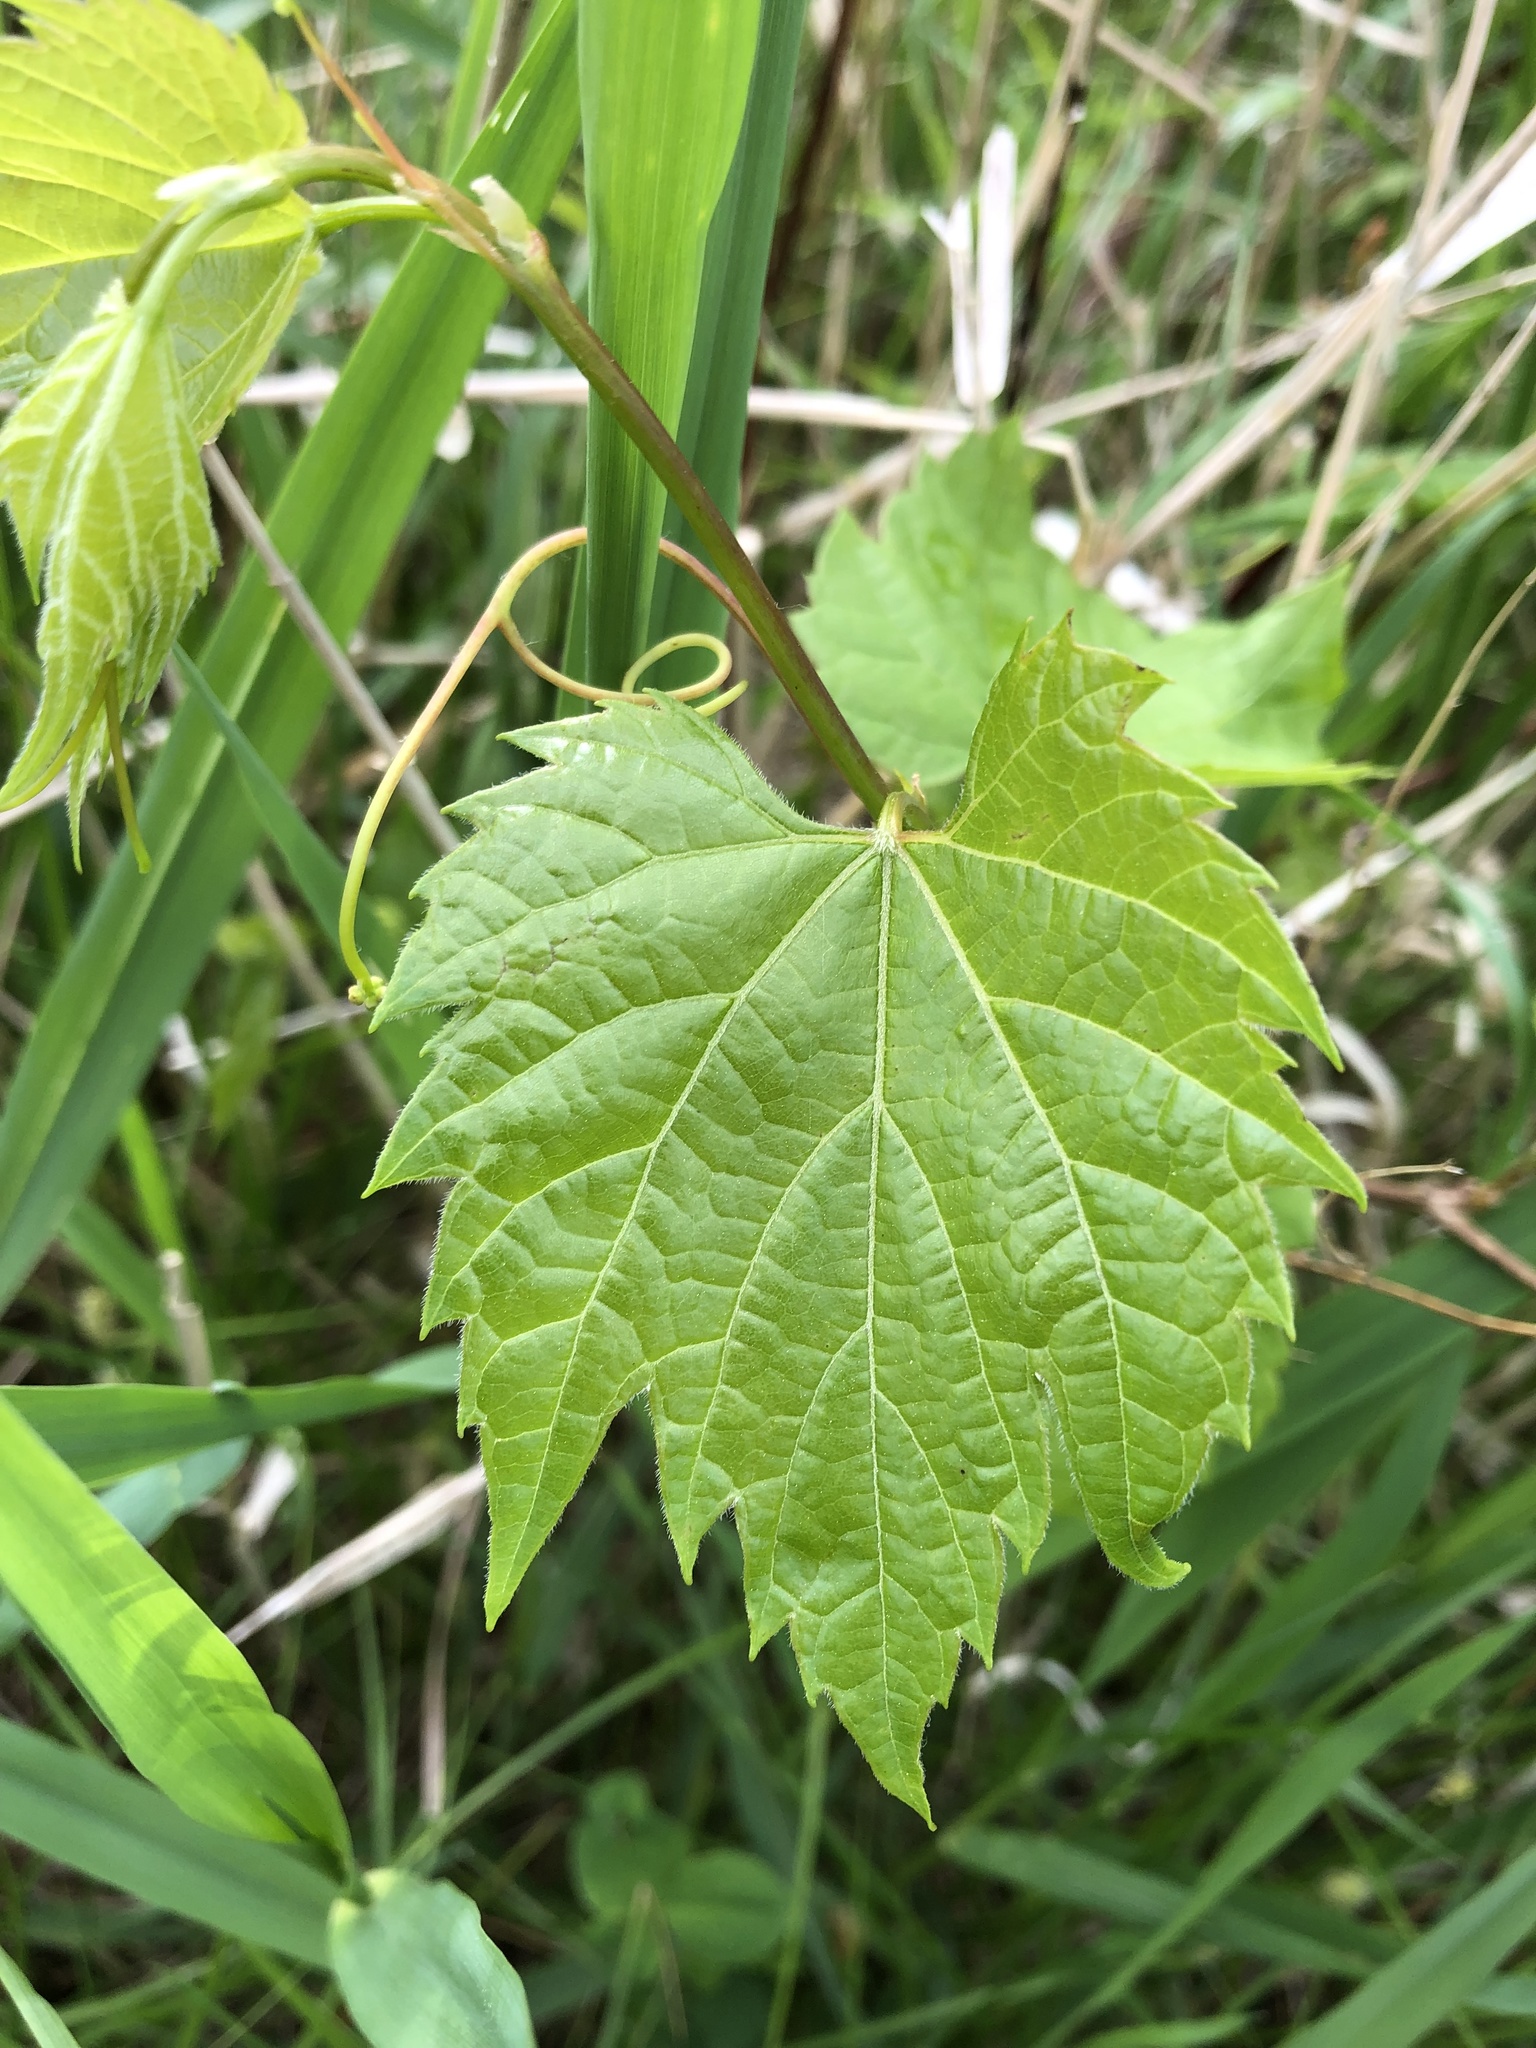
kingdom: Plantae
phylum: Tracheophyta
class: Magnoliopsida
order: Vitales
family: Vitaceae
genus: Vitis
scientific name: Vitis riparia
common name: Frost grape
